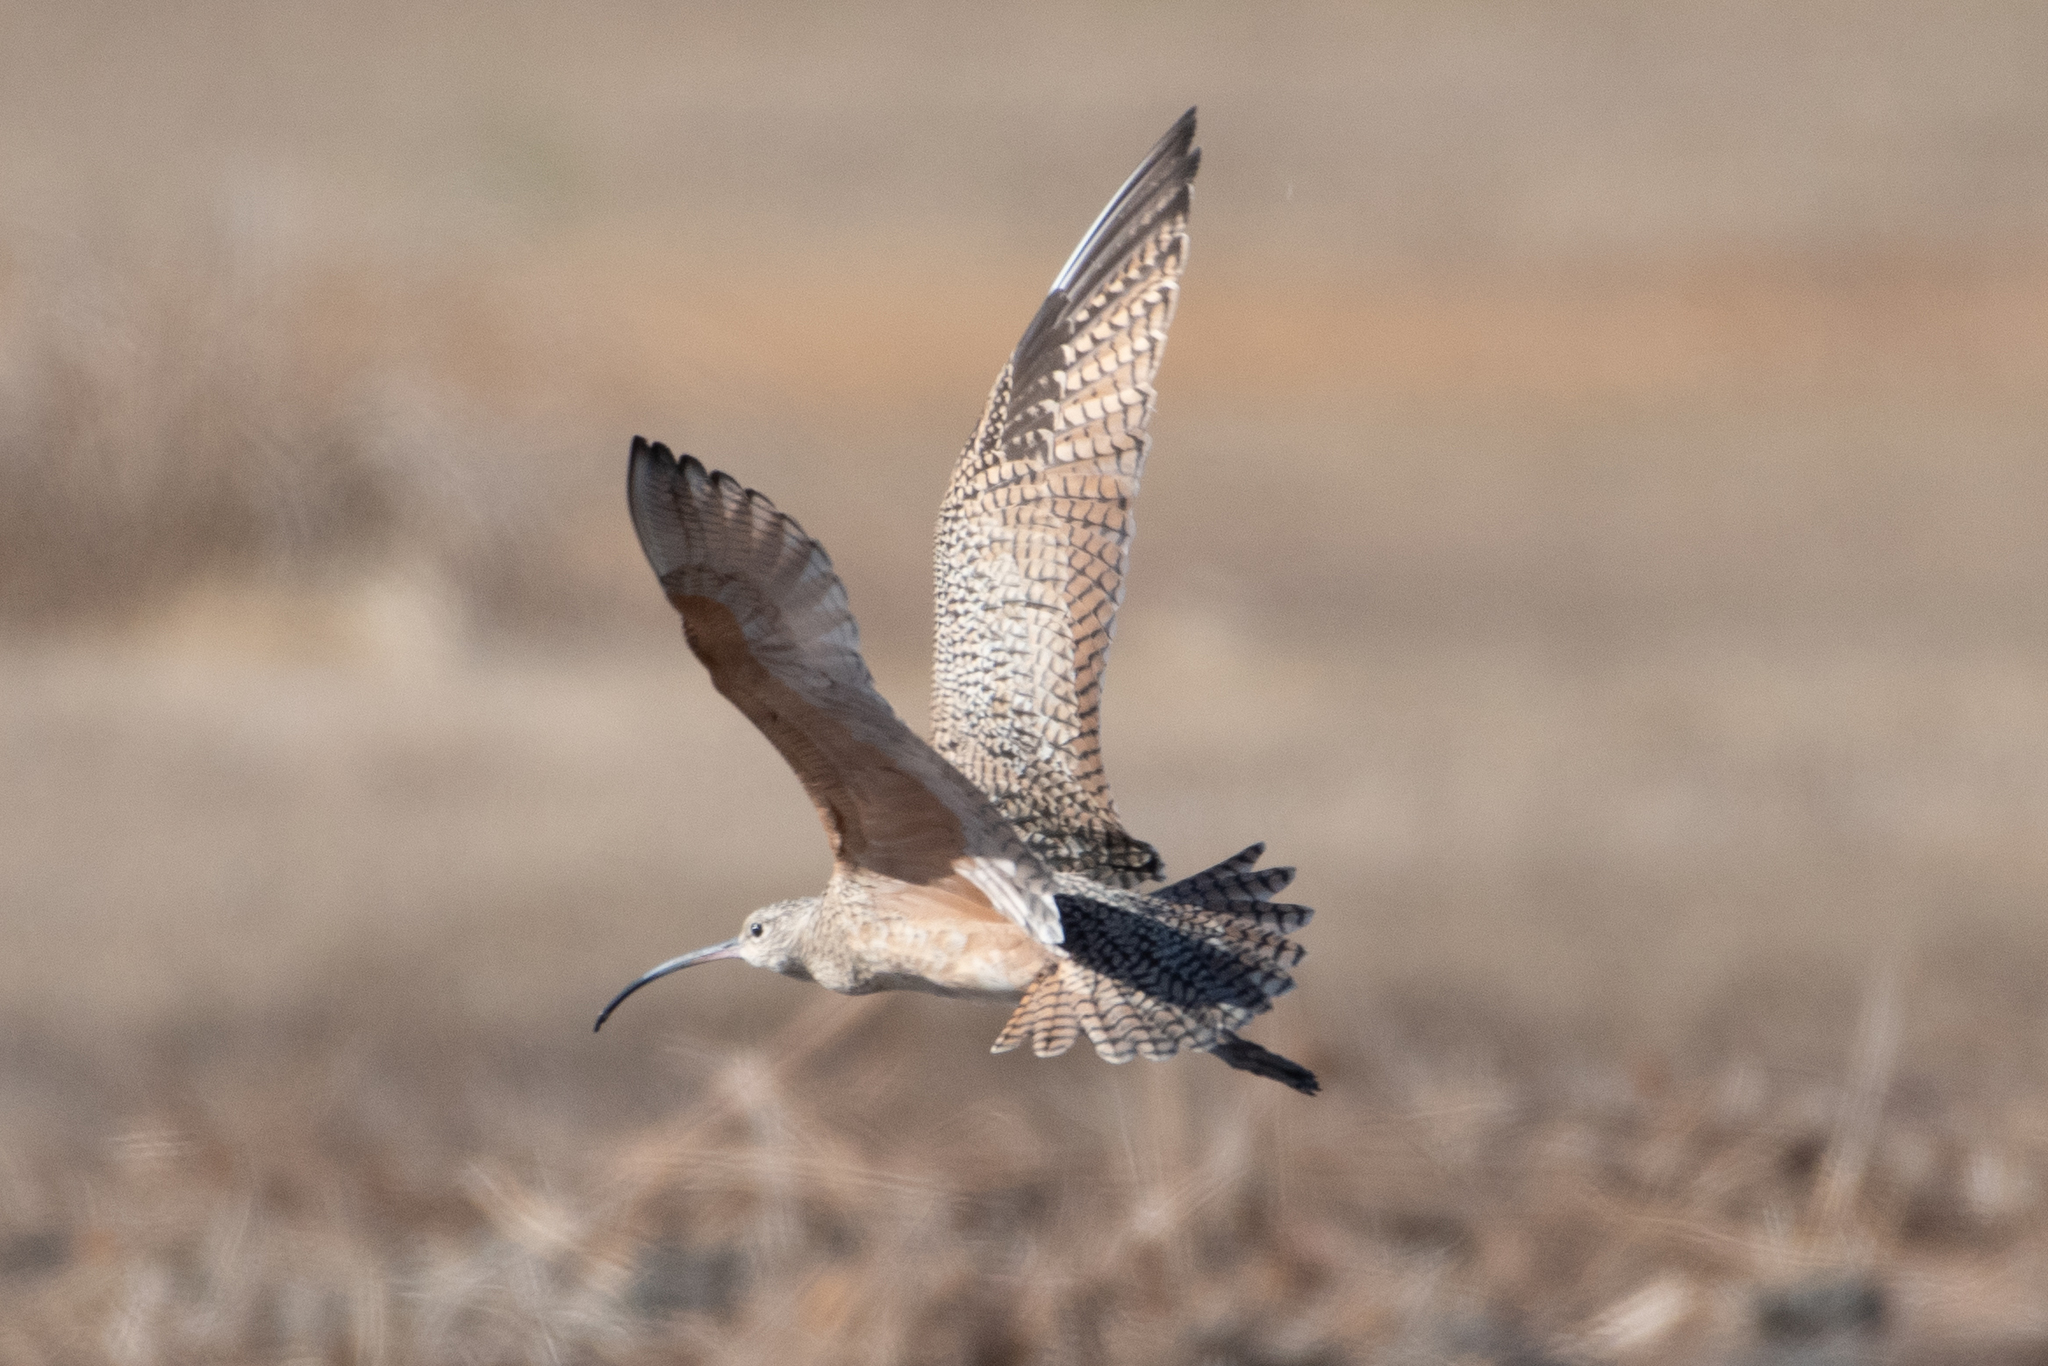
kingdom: Animalia
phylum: Chordata
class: Aves
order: Charadriiformes
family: Scolopacidae
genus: Numenius
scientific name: Numenius americanus
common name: Long-billed curlew
